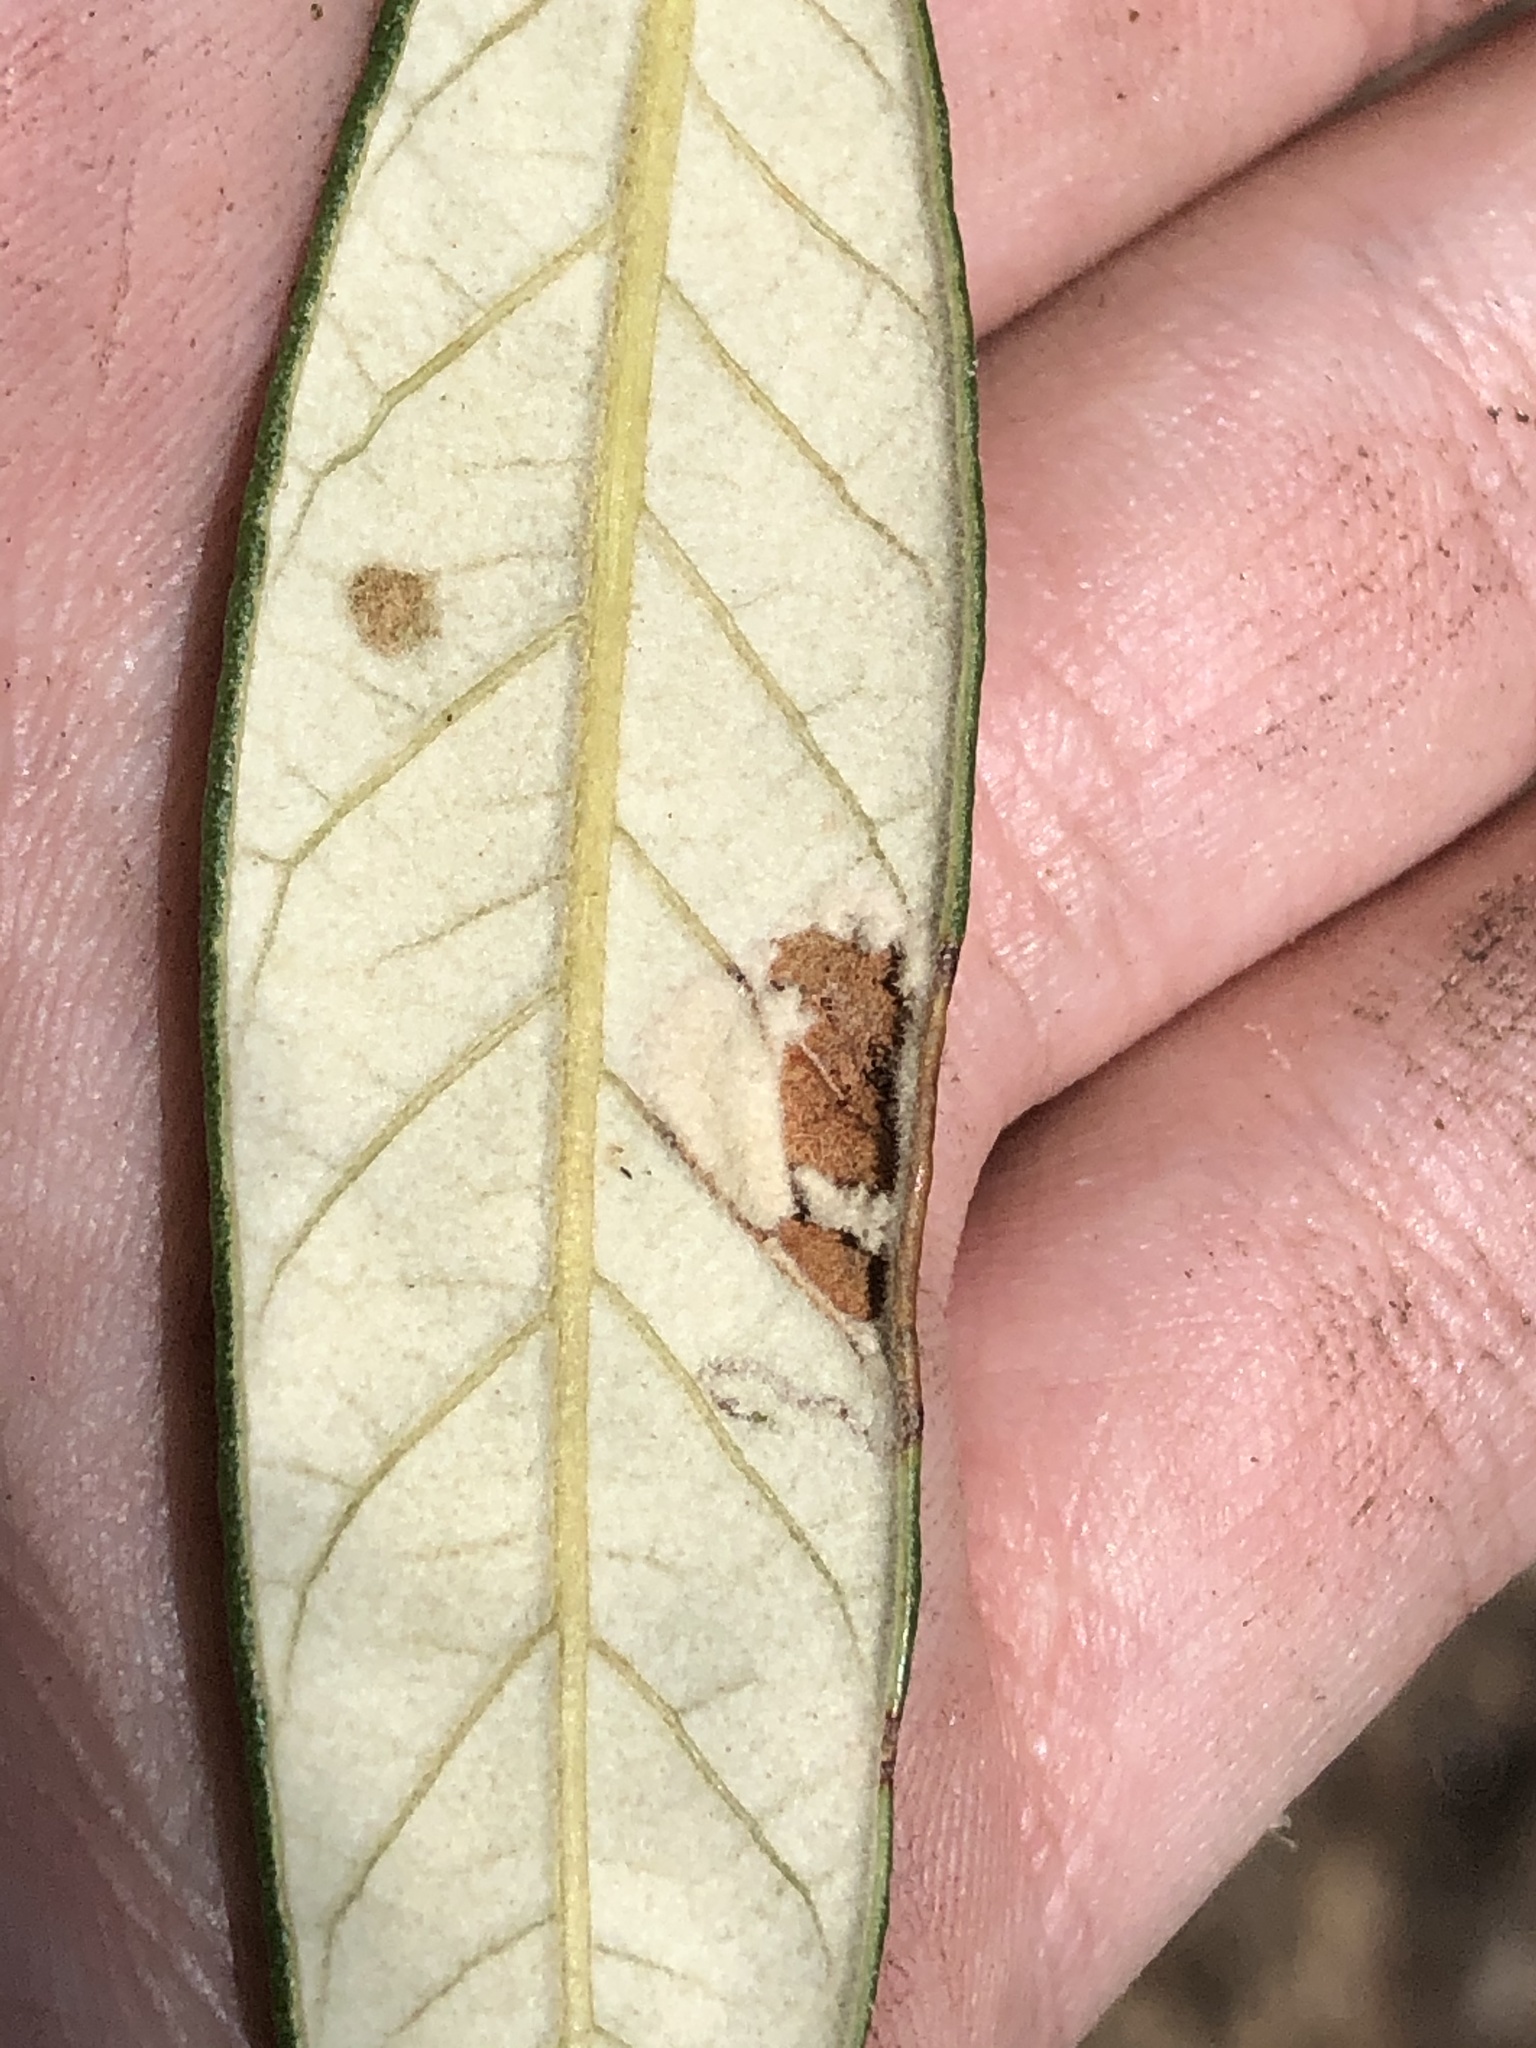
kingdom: Plantae
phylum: Tracheophyta
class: Magnoliopsida
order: Fagales
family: Fagaceae
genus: Quercus
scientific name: Quercus hypoleucoides
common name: Silverleaf oak
